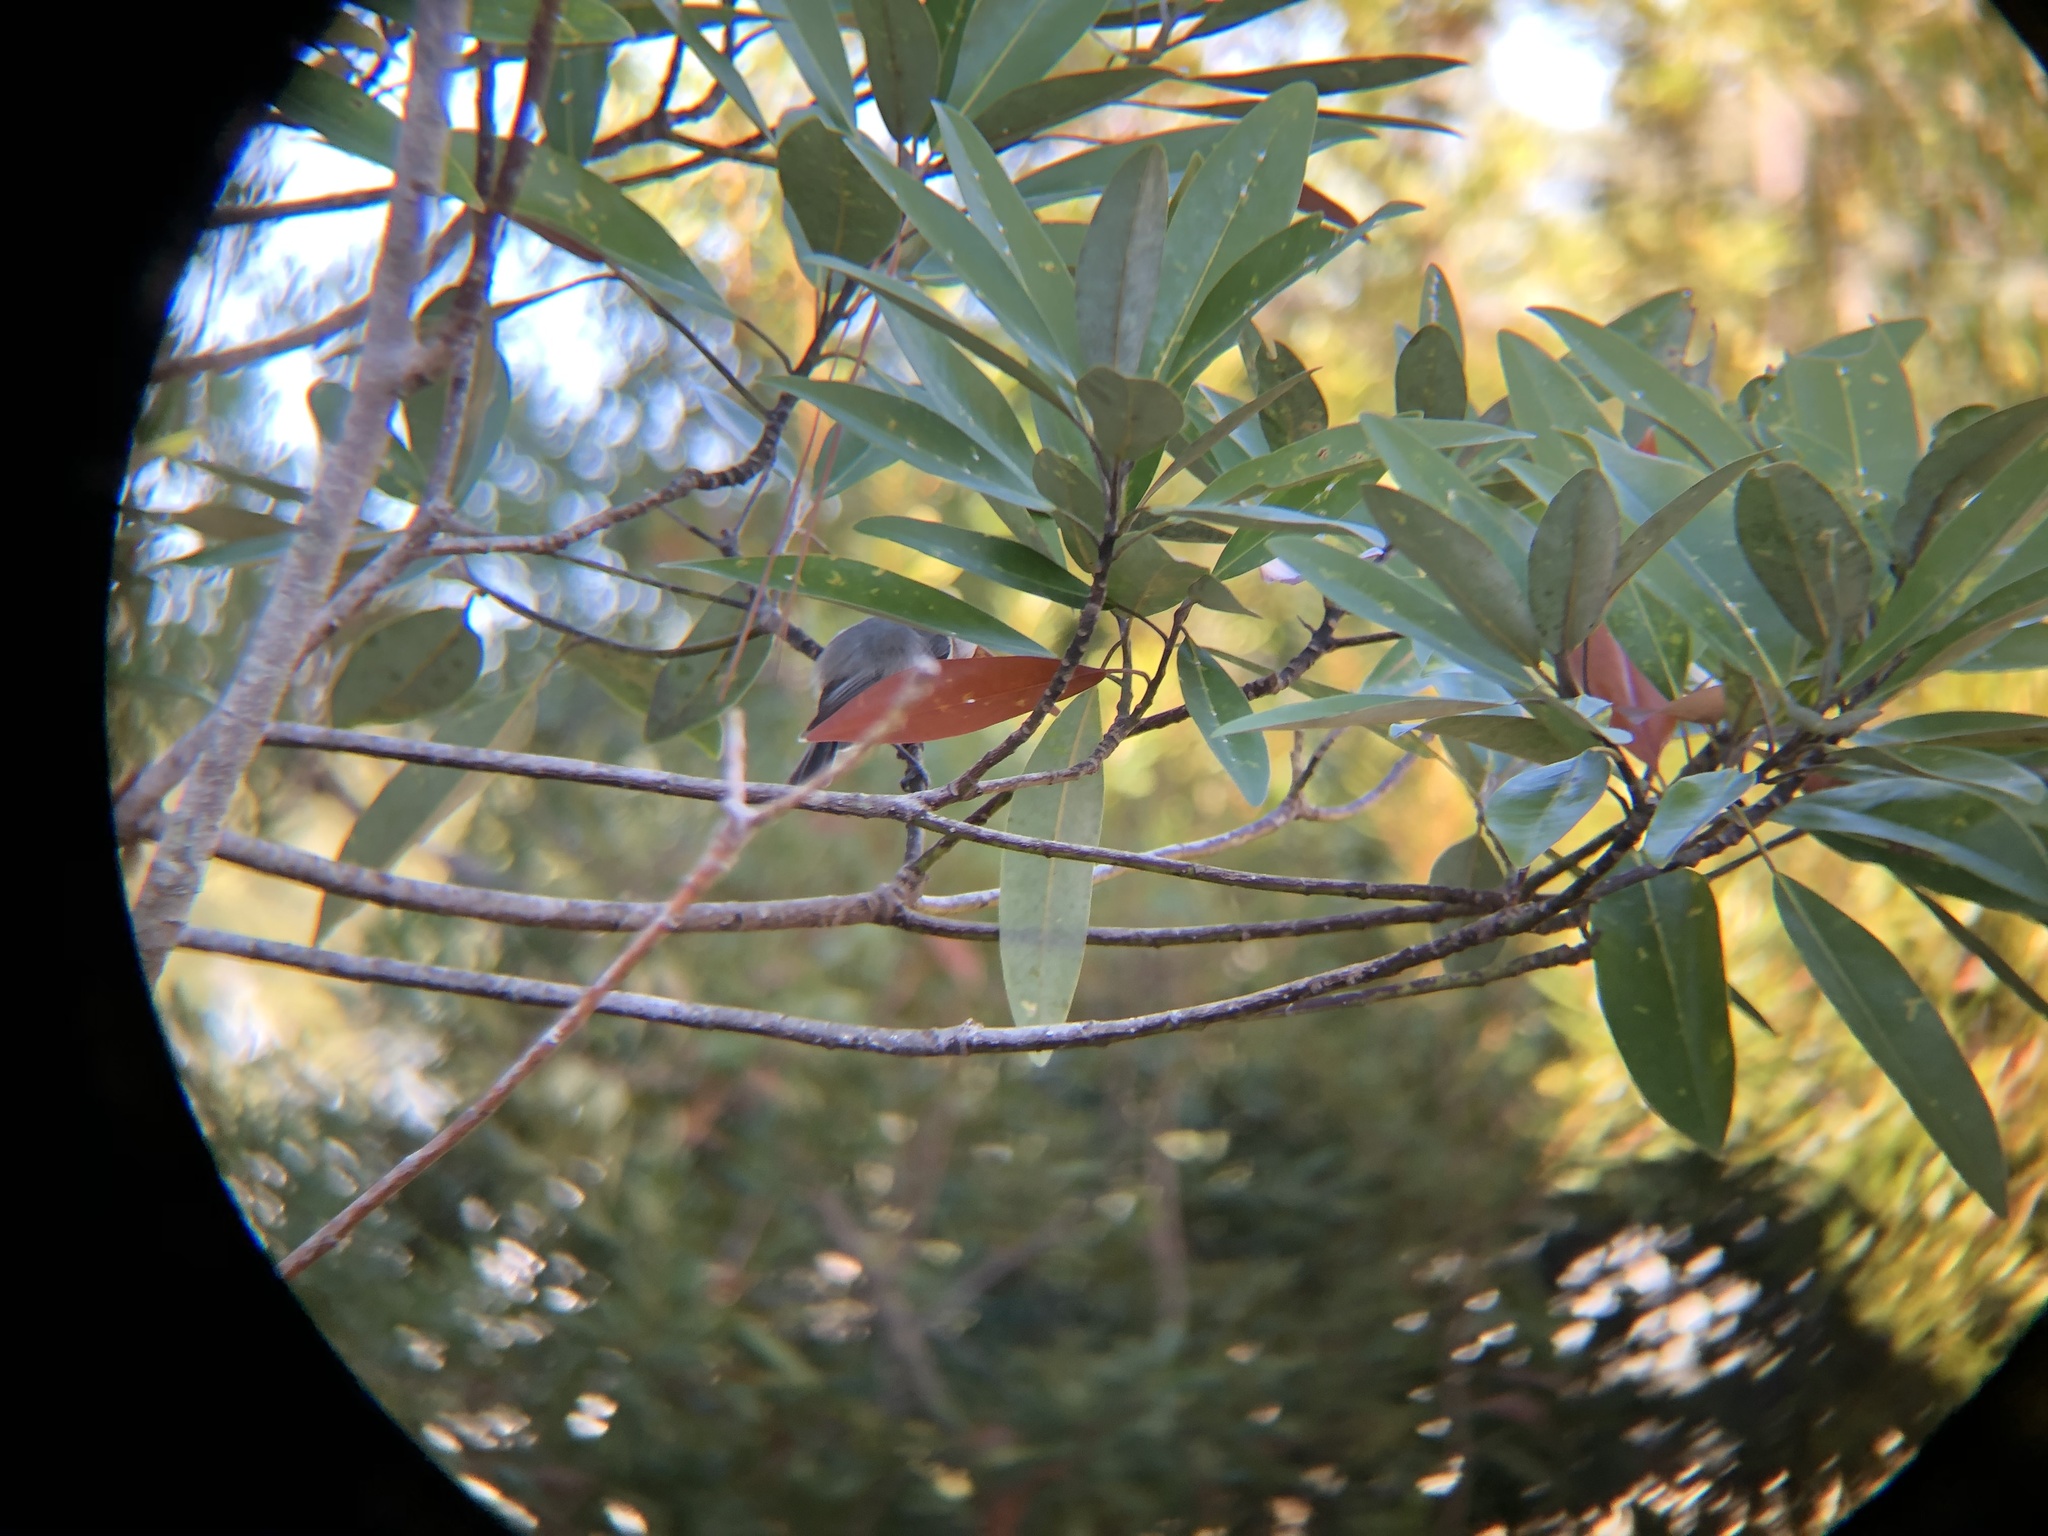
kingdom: Animalia
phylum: Chordata
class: Aves
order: Passeriformes
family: Paridae
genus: Poecile
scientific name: Poecile carolinensis
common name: Carolina chickadee
